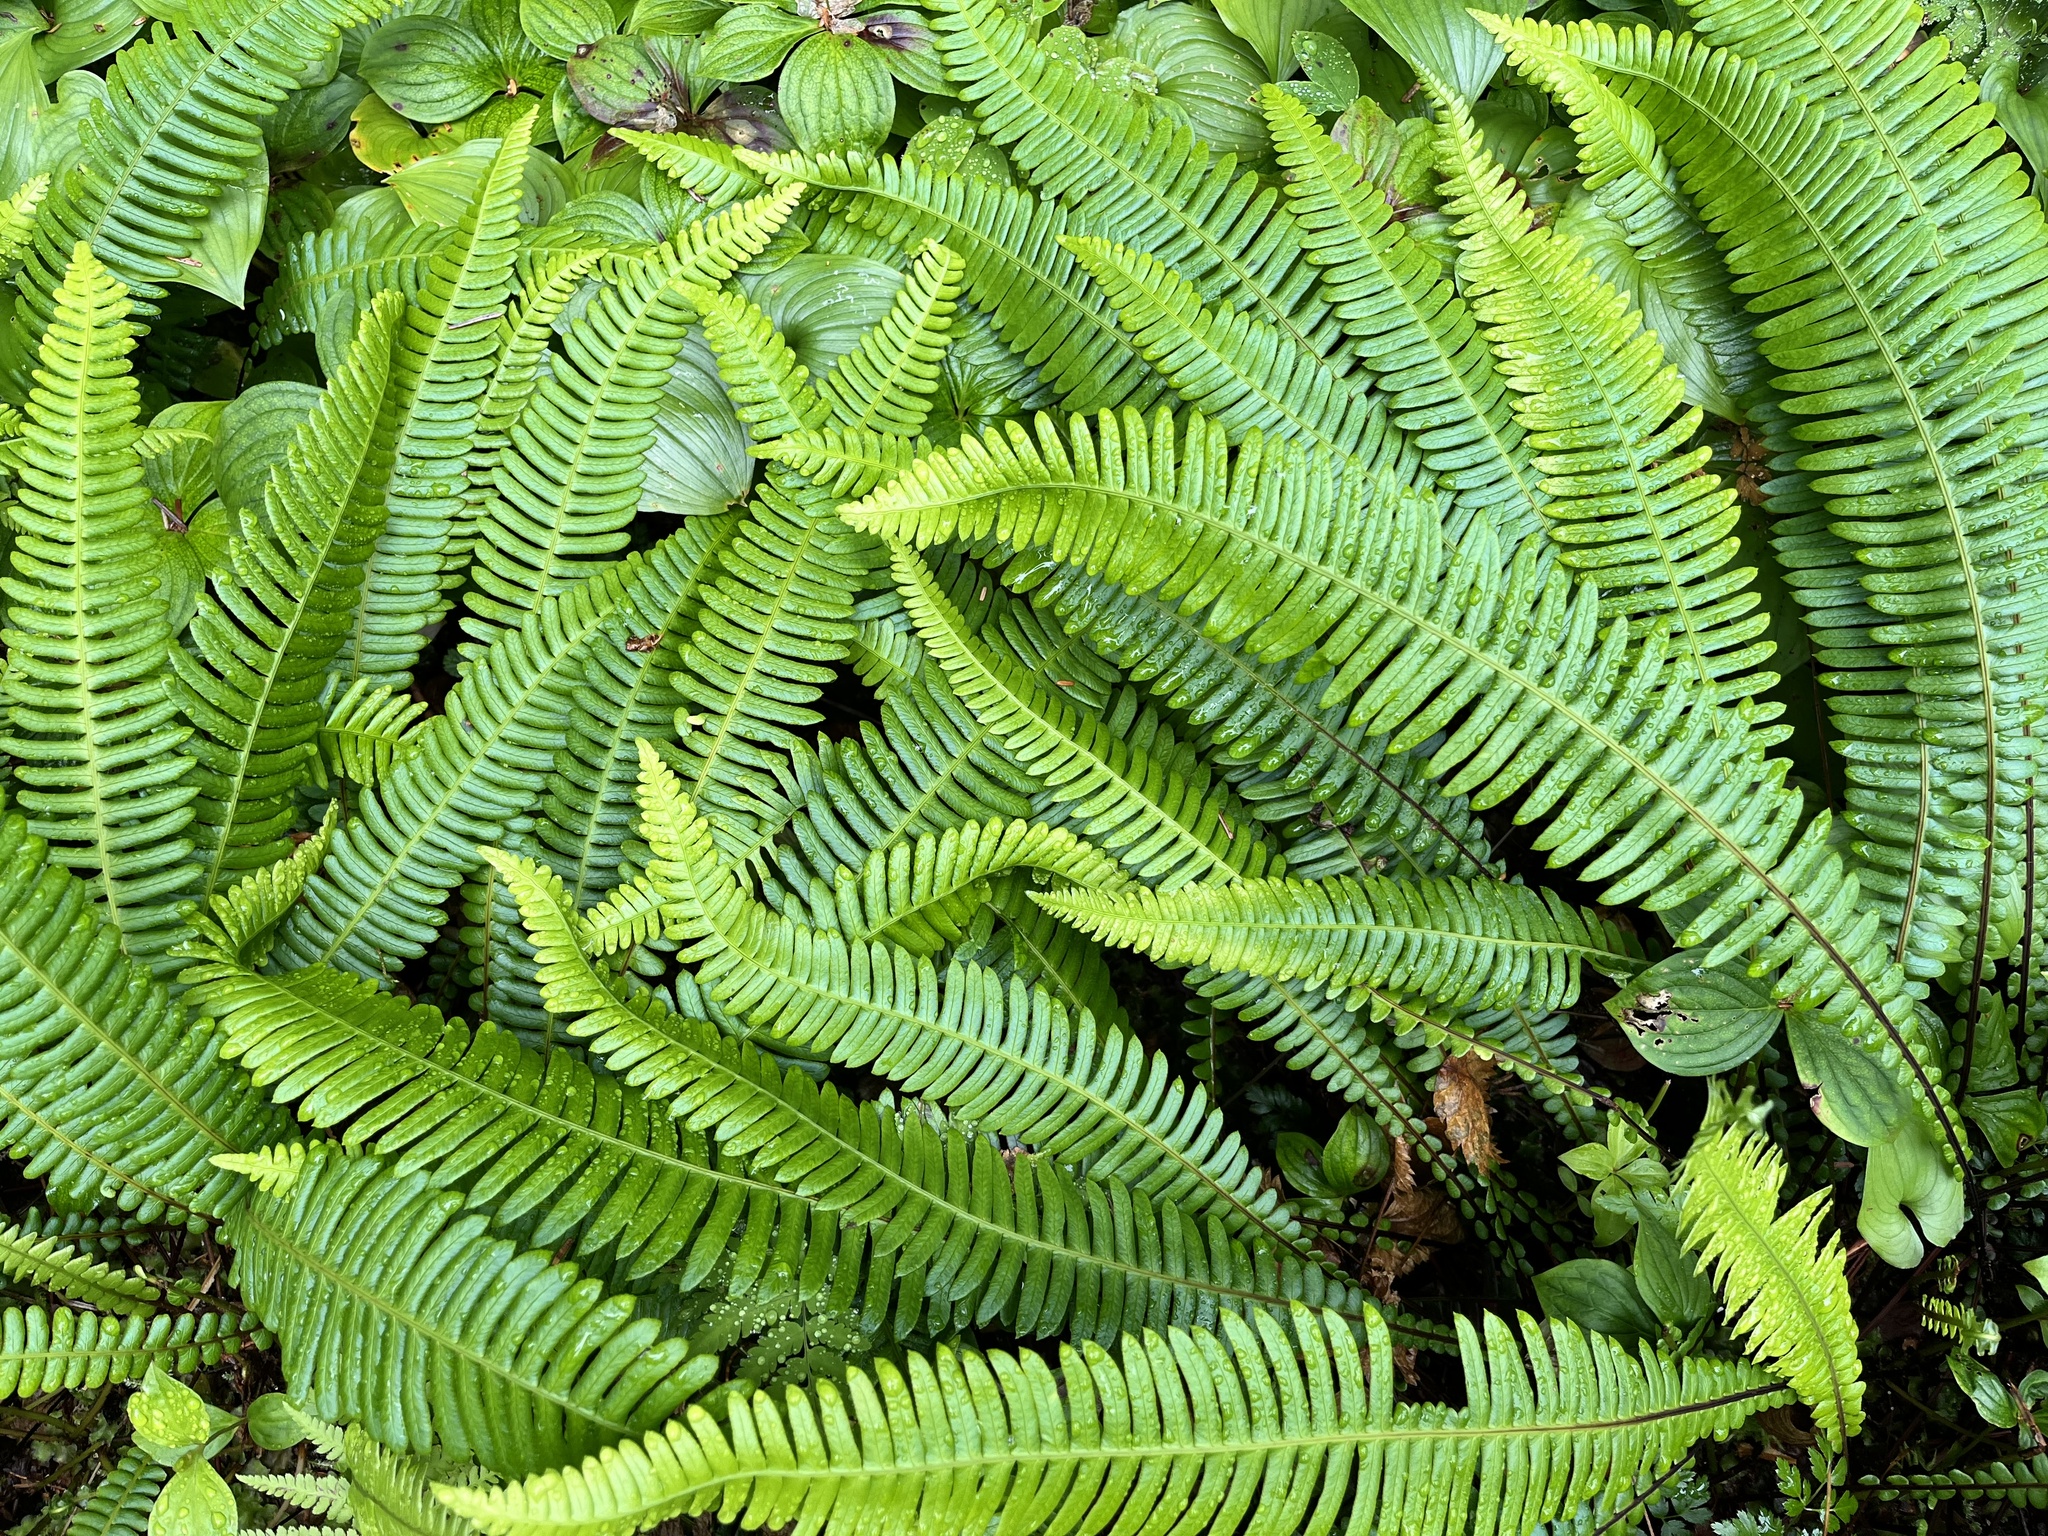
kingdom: Plantae
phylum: Tracheophyta
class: Polypodiopsida
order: Polypodiales
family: Blechnaceae
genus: Struthiopteris
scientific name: Struthiopteris spicant
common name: Deer fern
